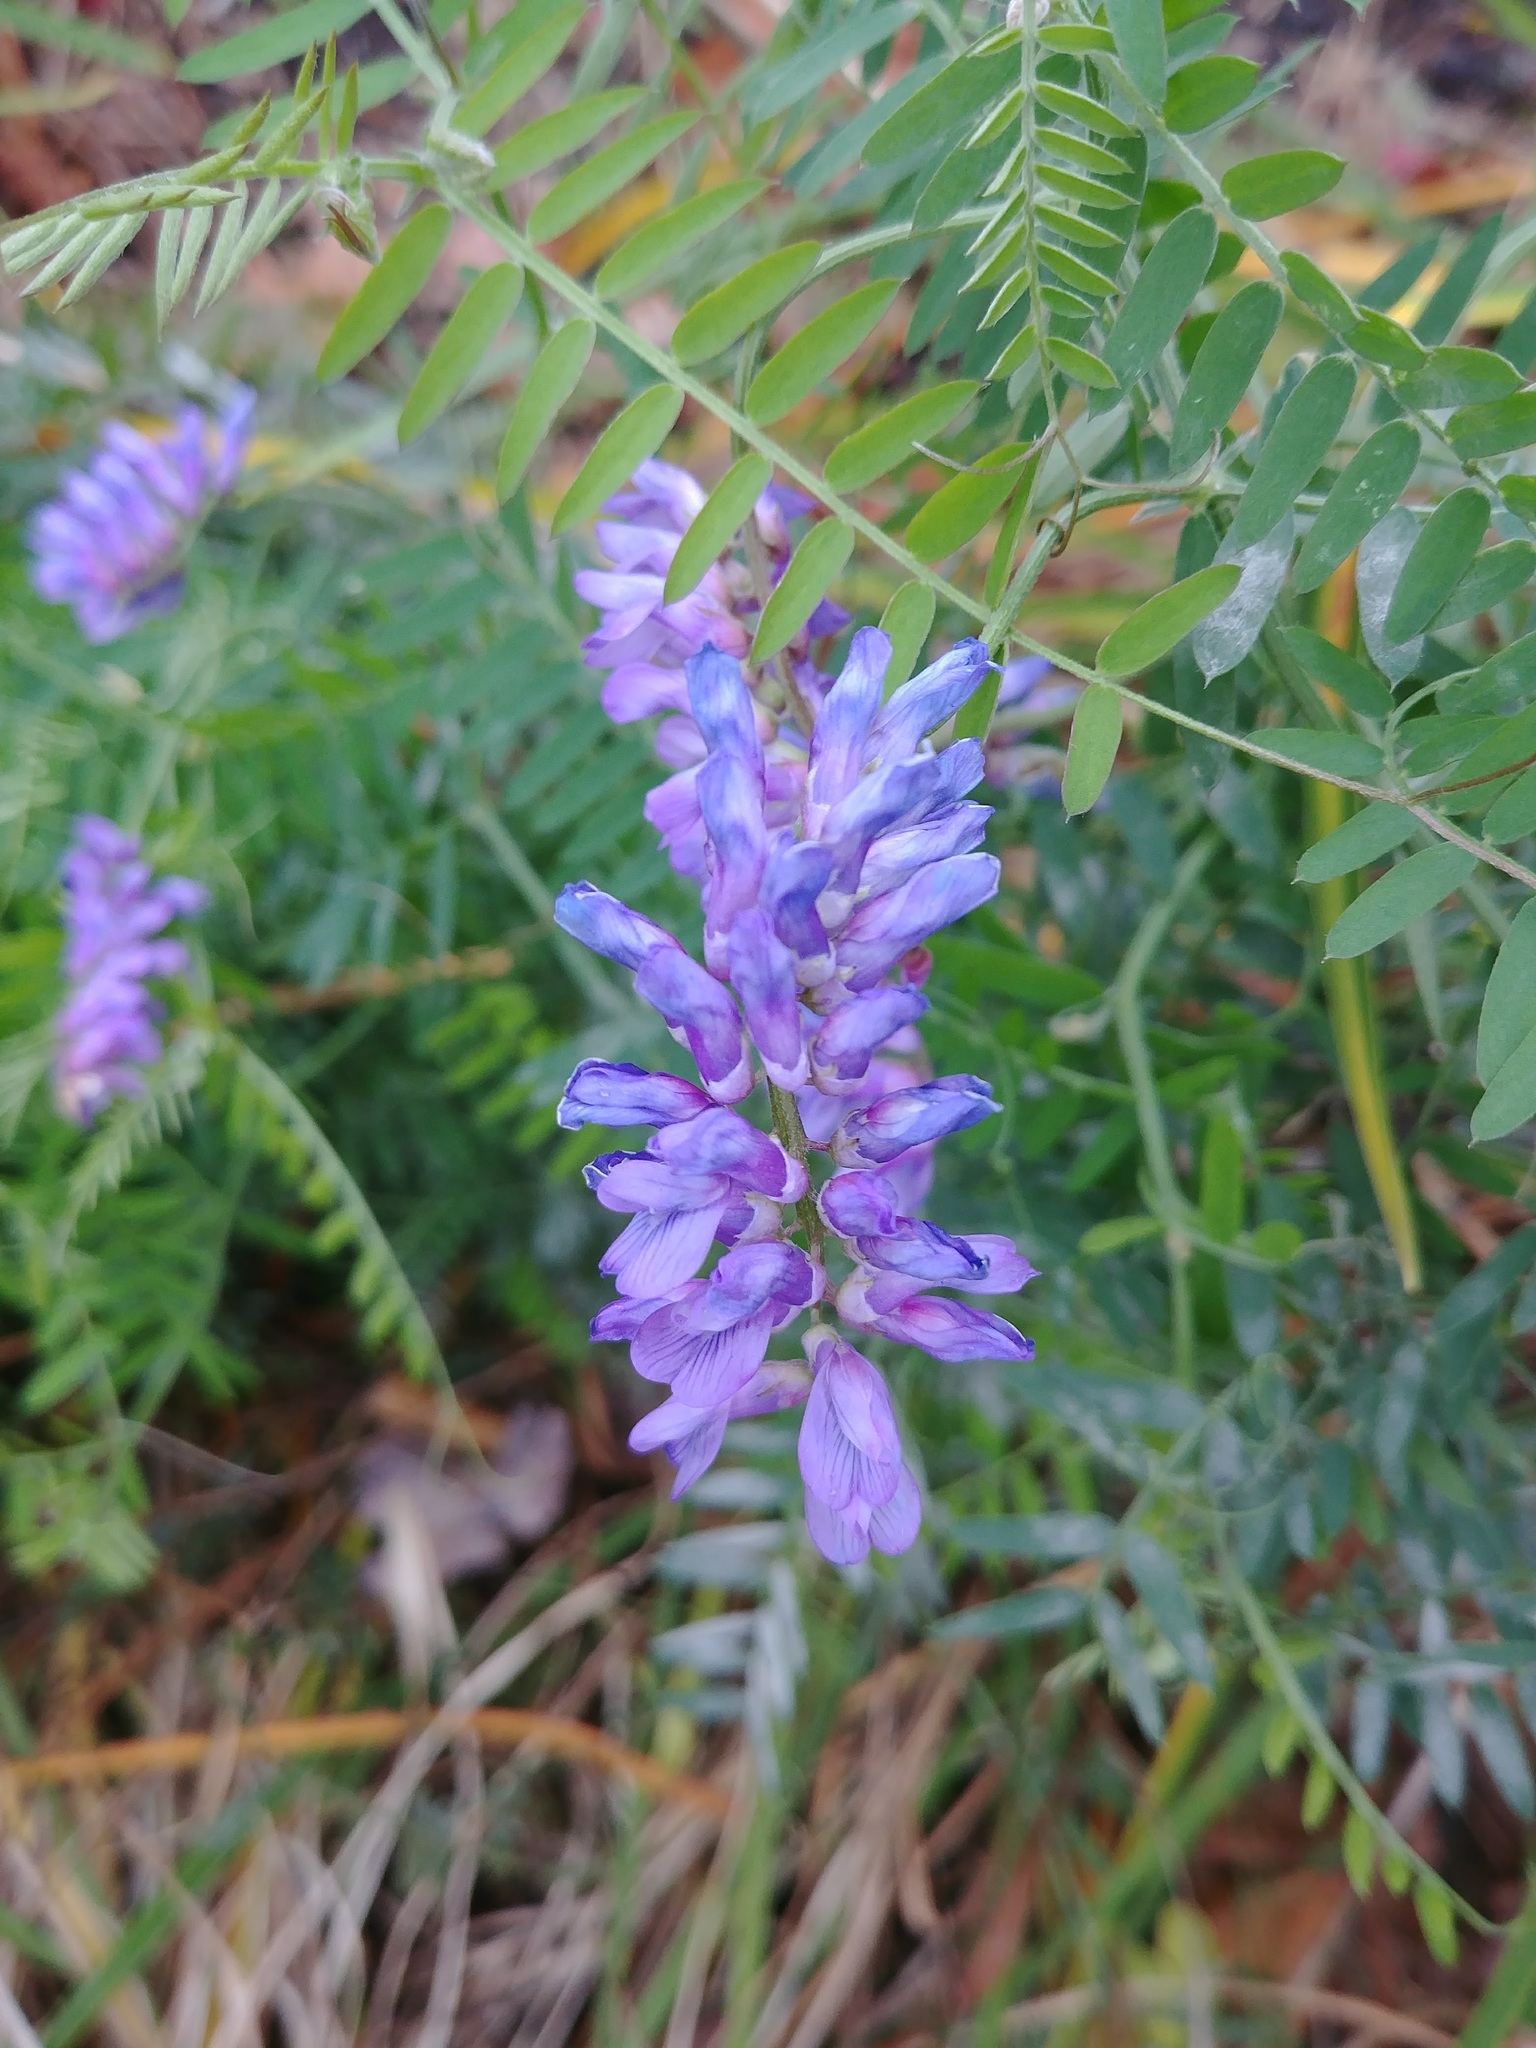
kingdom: Plantae
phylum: Tracheophyta
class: Magnoliopsida
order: Fabales
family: Fabaceae
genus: Vicia
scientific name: Vicia cracca
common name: Bird vetch
